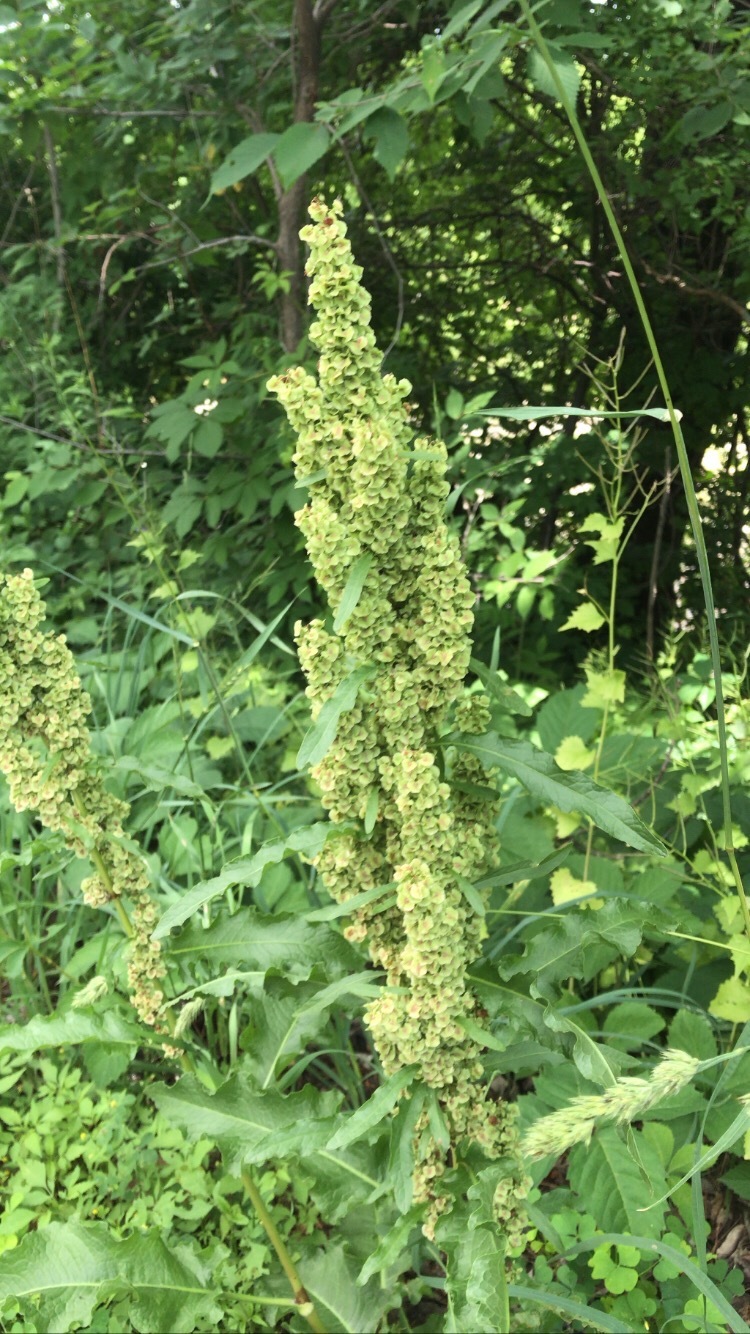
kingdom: Plantae
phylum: Tracheophyta
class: Magnoliopsida
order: Caryophyllales
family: Polygonaceae
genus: Rumex
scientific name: Rumex crispus
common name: Curled dock
